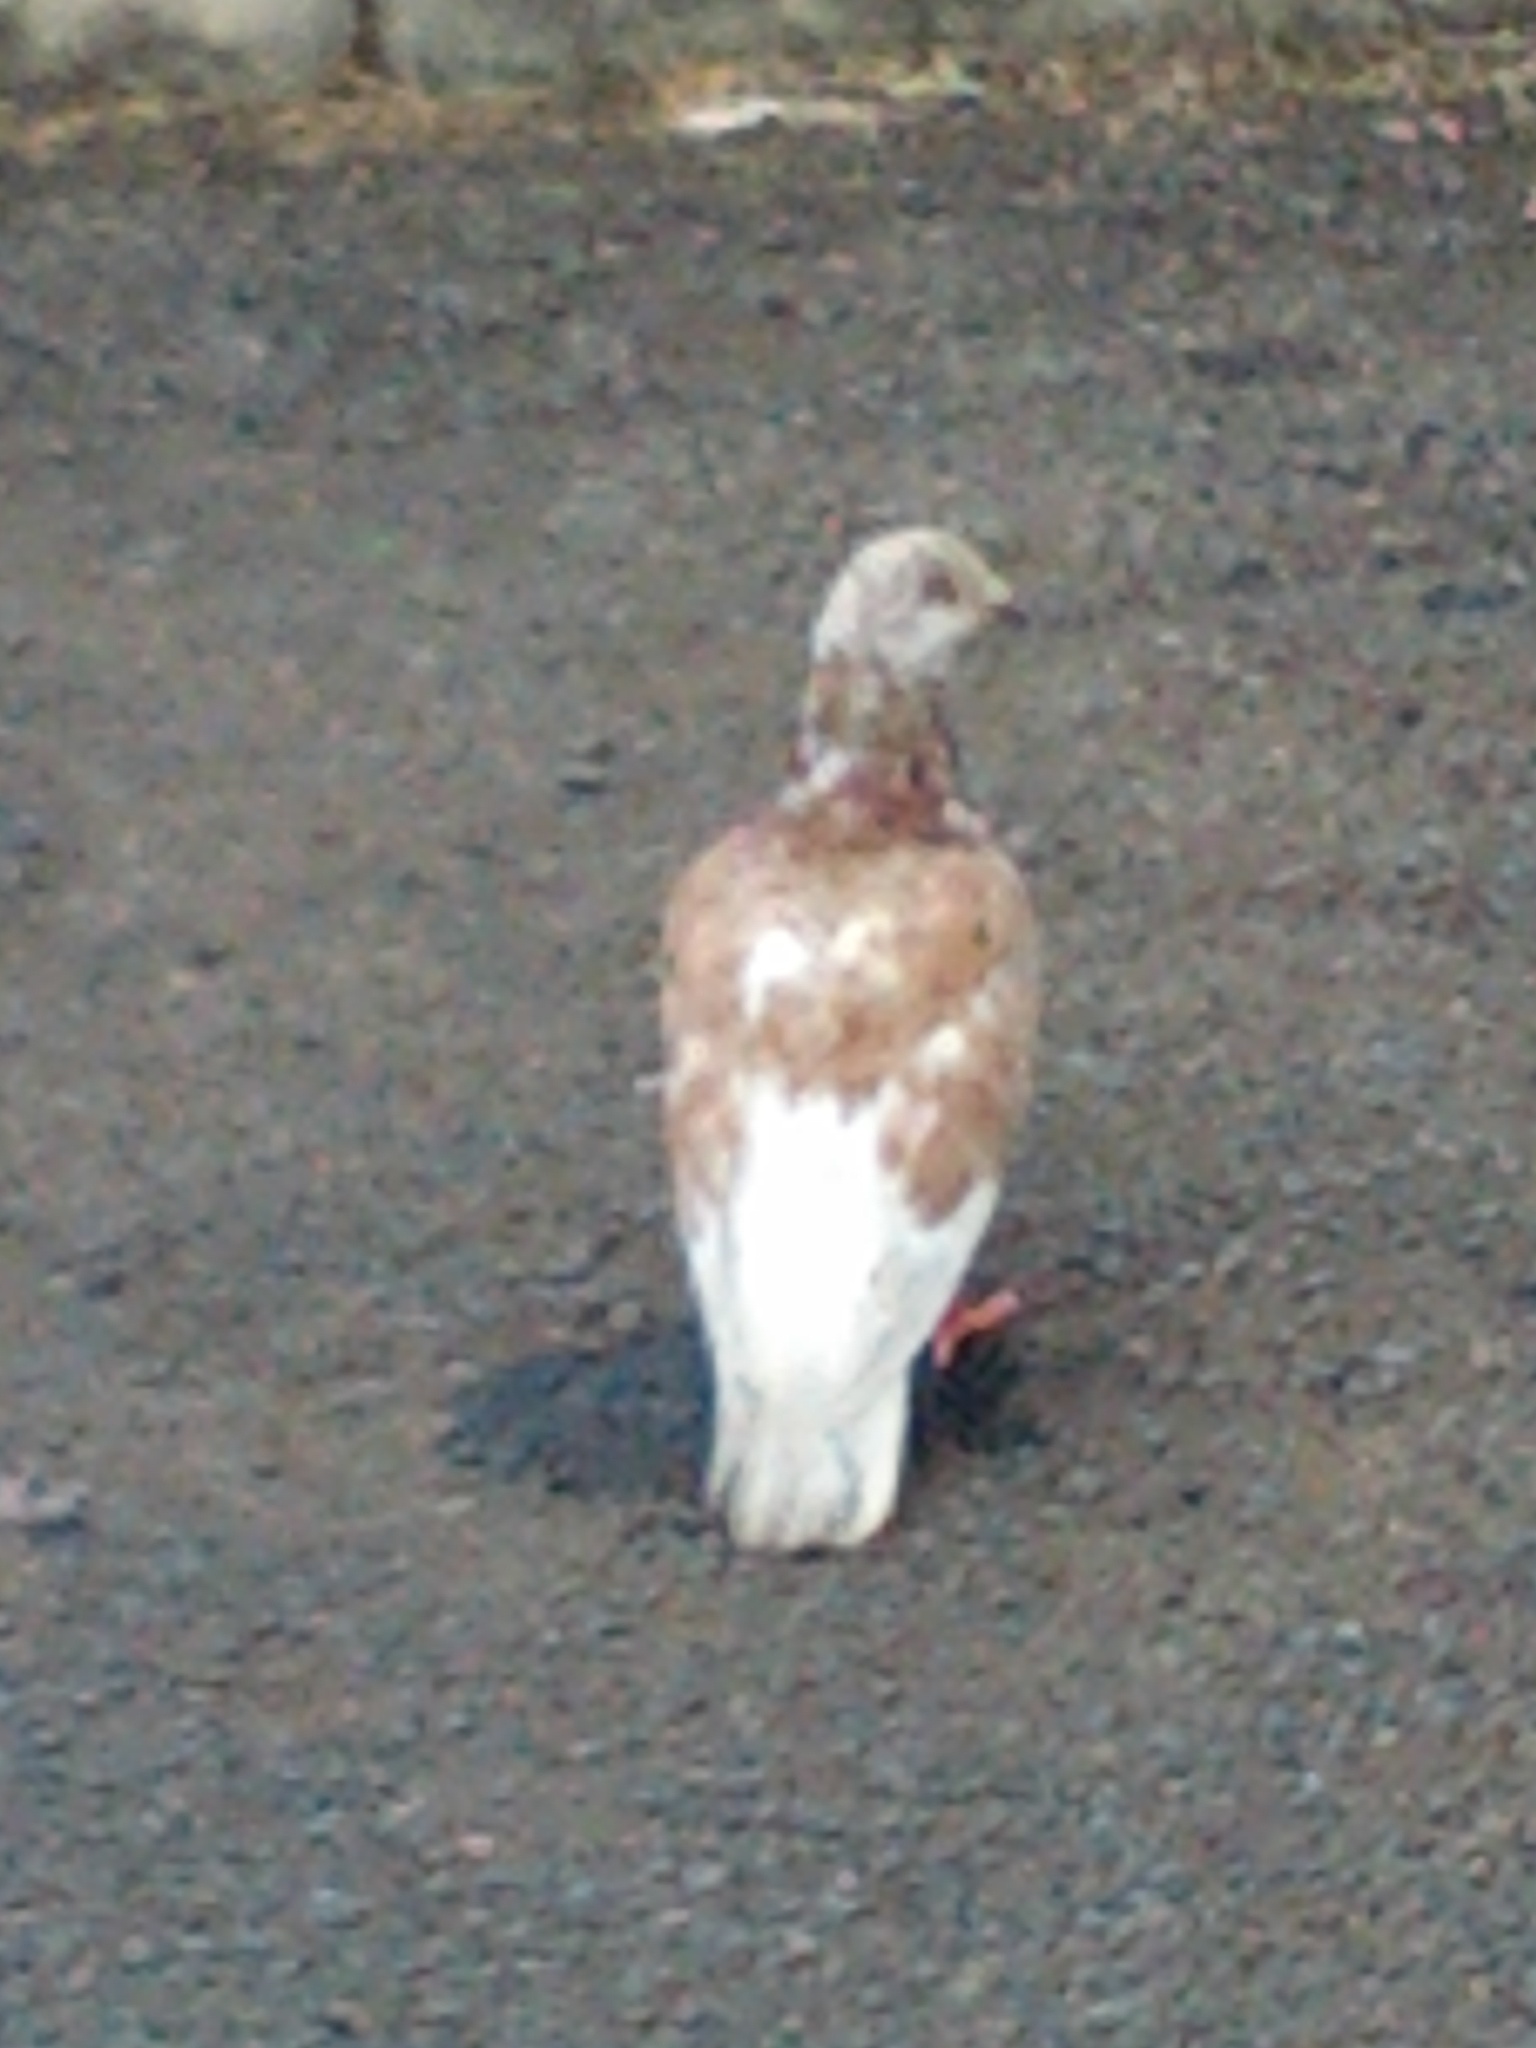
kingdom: Animalia
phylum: Chordata
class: Aves
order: Columbiformes
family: Columbidae
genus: Columba
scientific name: Columba livia
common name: Rock pigeon
